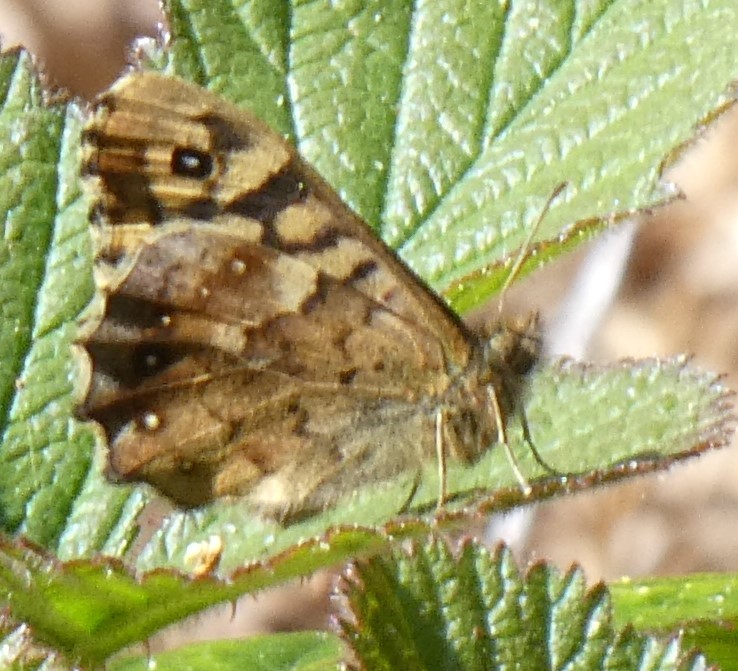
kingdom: Animalia
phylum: Arthropoda
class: Insecta
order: Lepidoptera
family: Nymphalidae
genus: Pararge
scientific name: Pararge aegeria
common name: Speckled wood
